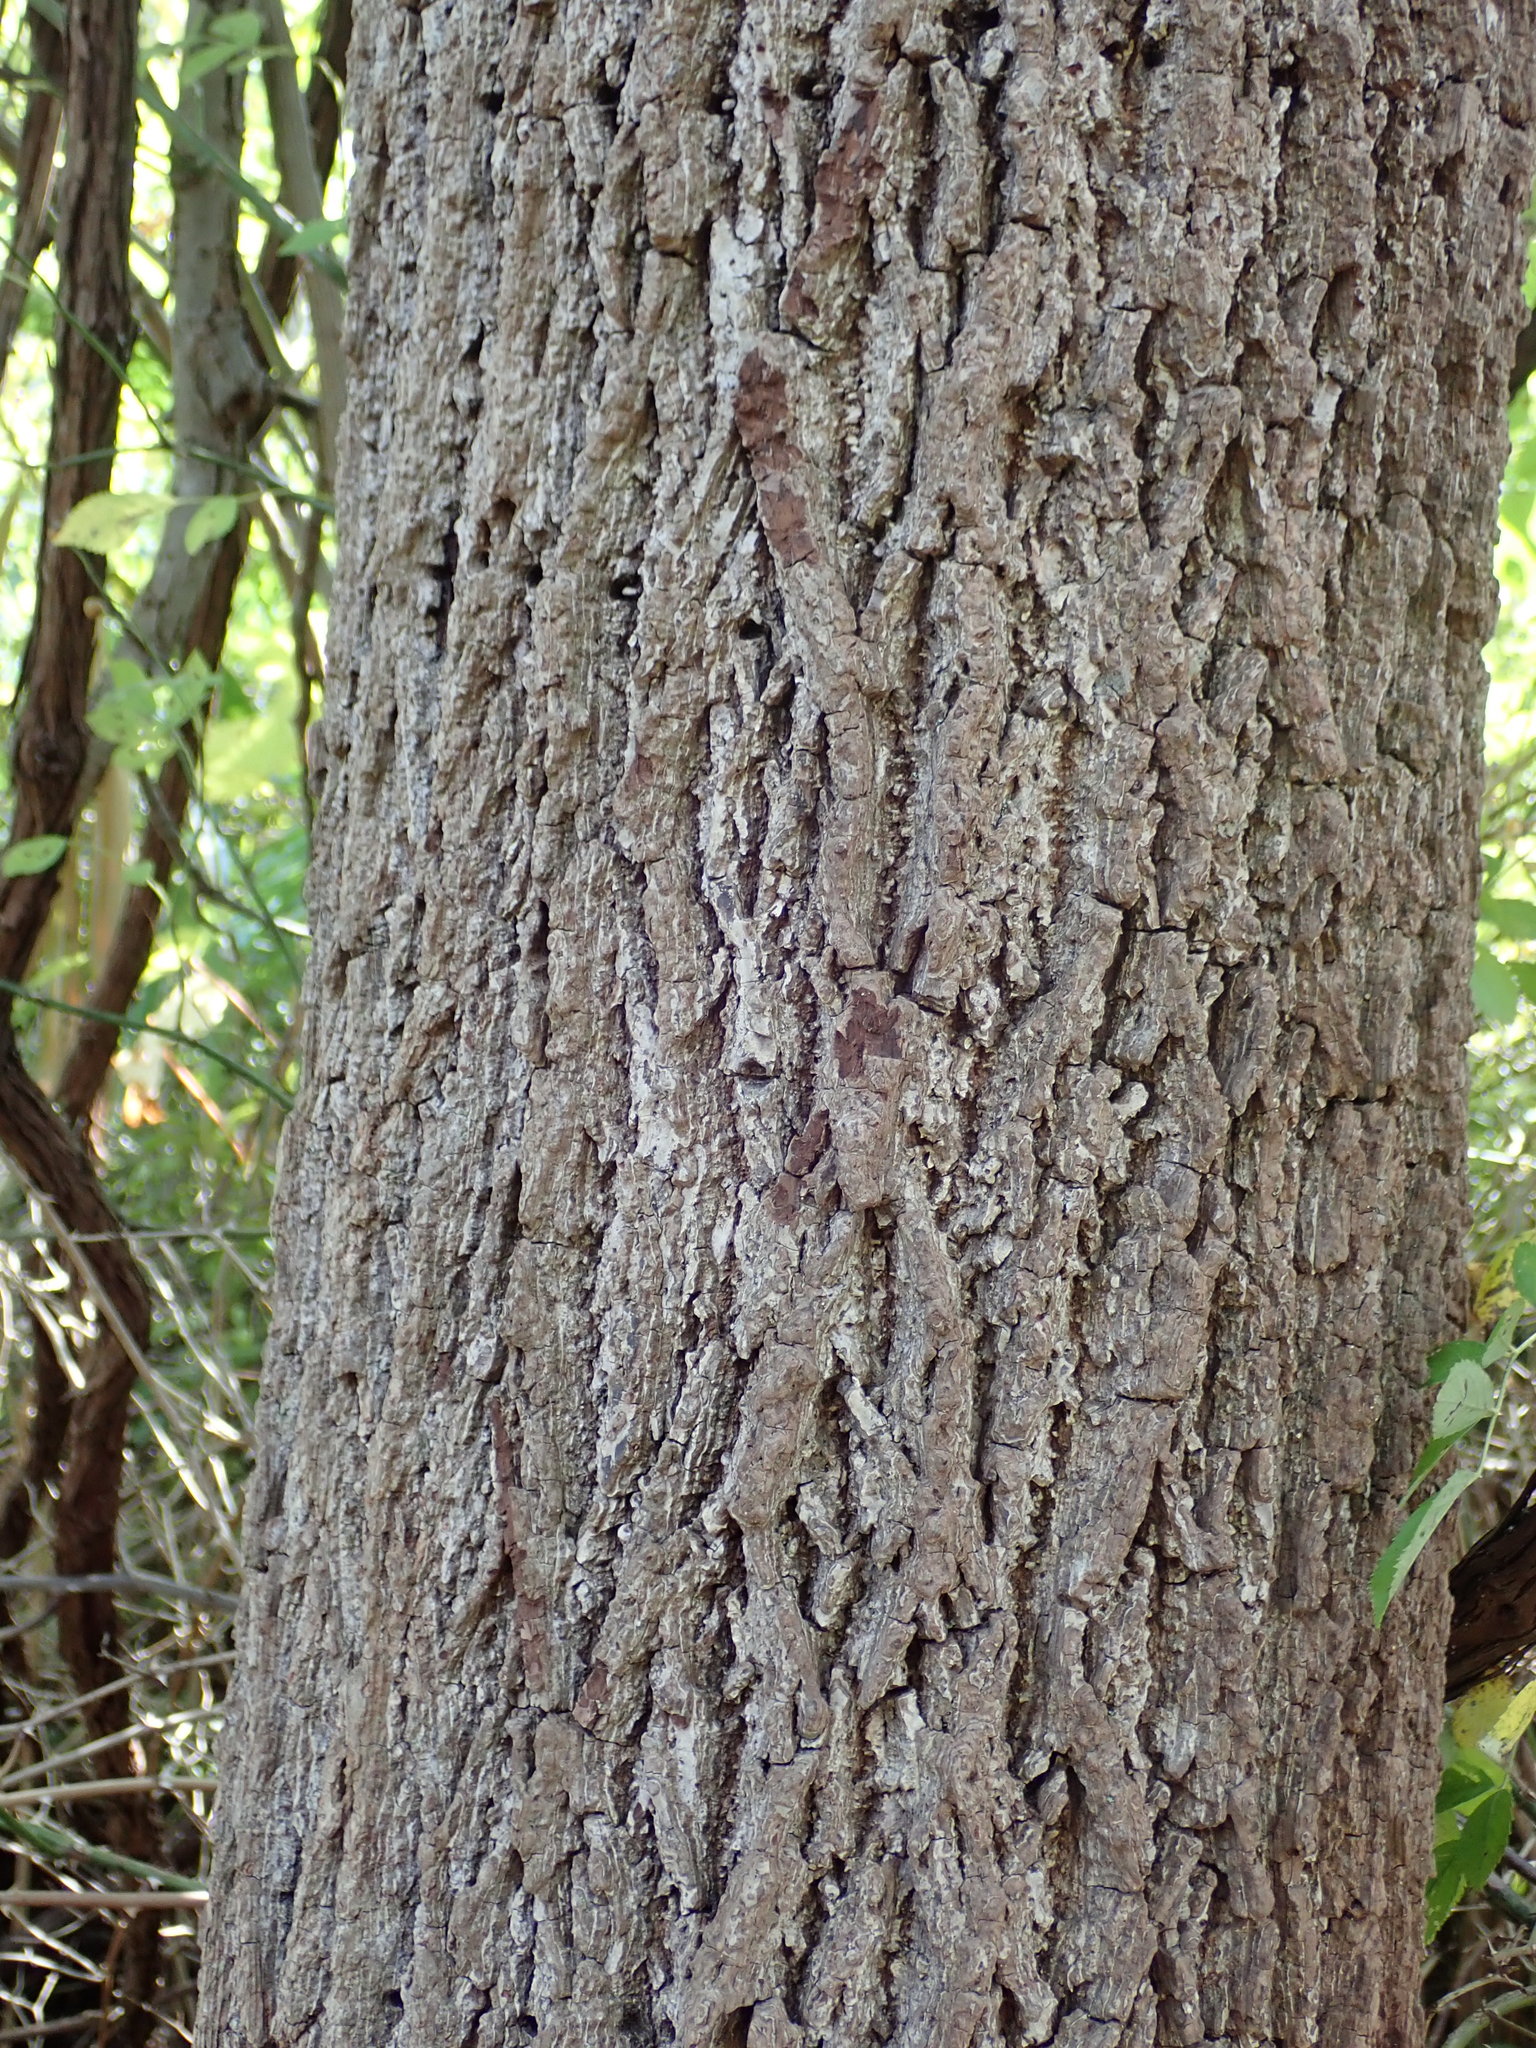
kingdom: Plantae
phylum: Tracheophyta
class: Magnoliopsida
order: Fagales
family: Juglandaceae
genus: Juglans
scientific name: Juglans nigra
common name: Black walnut
